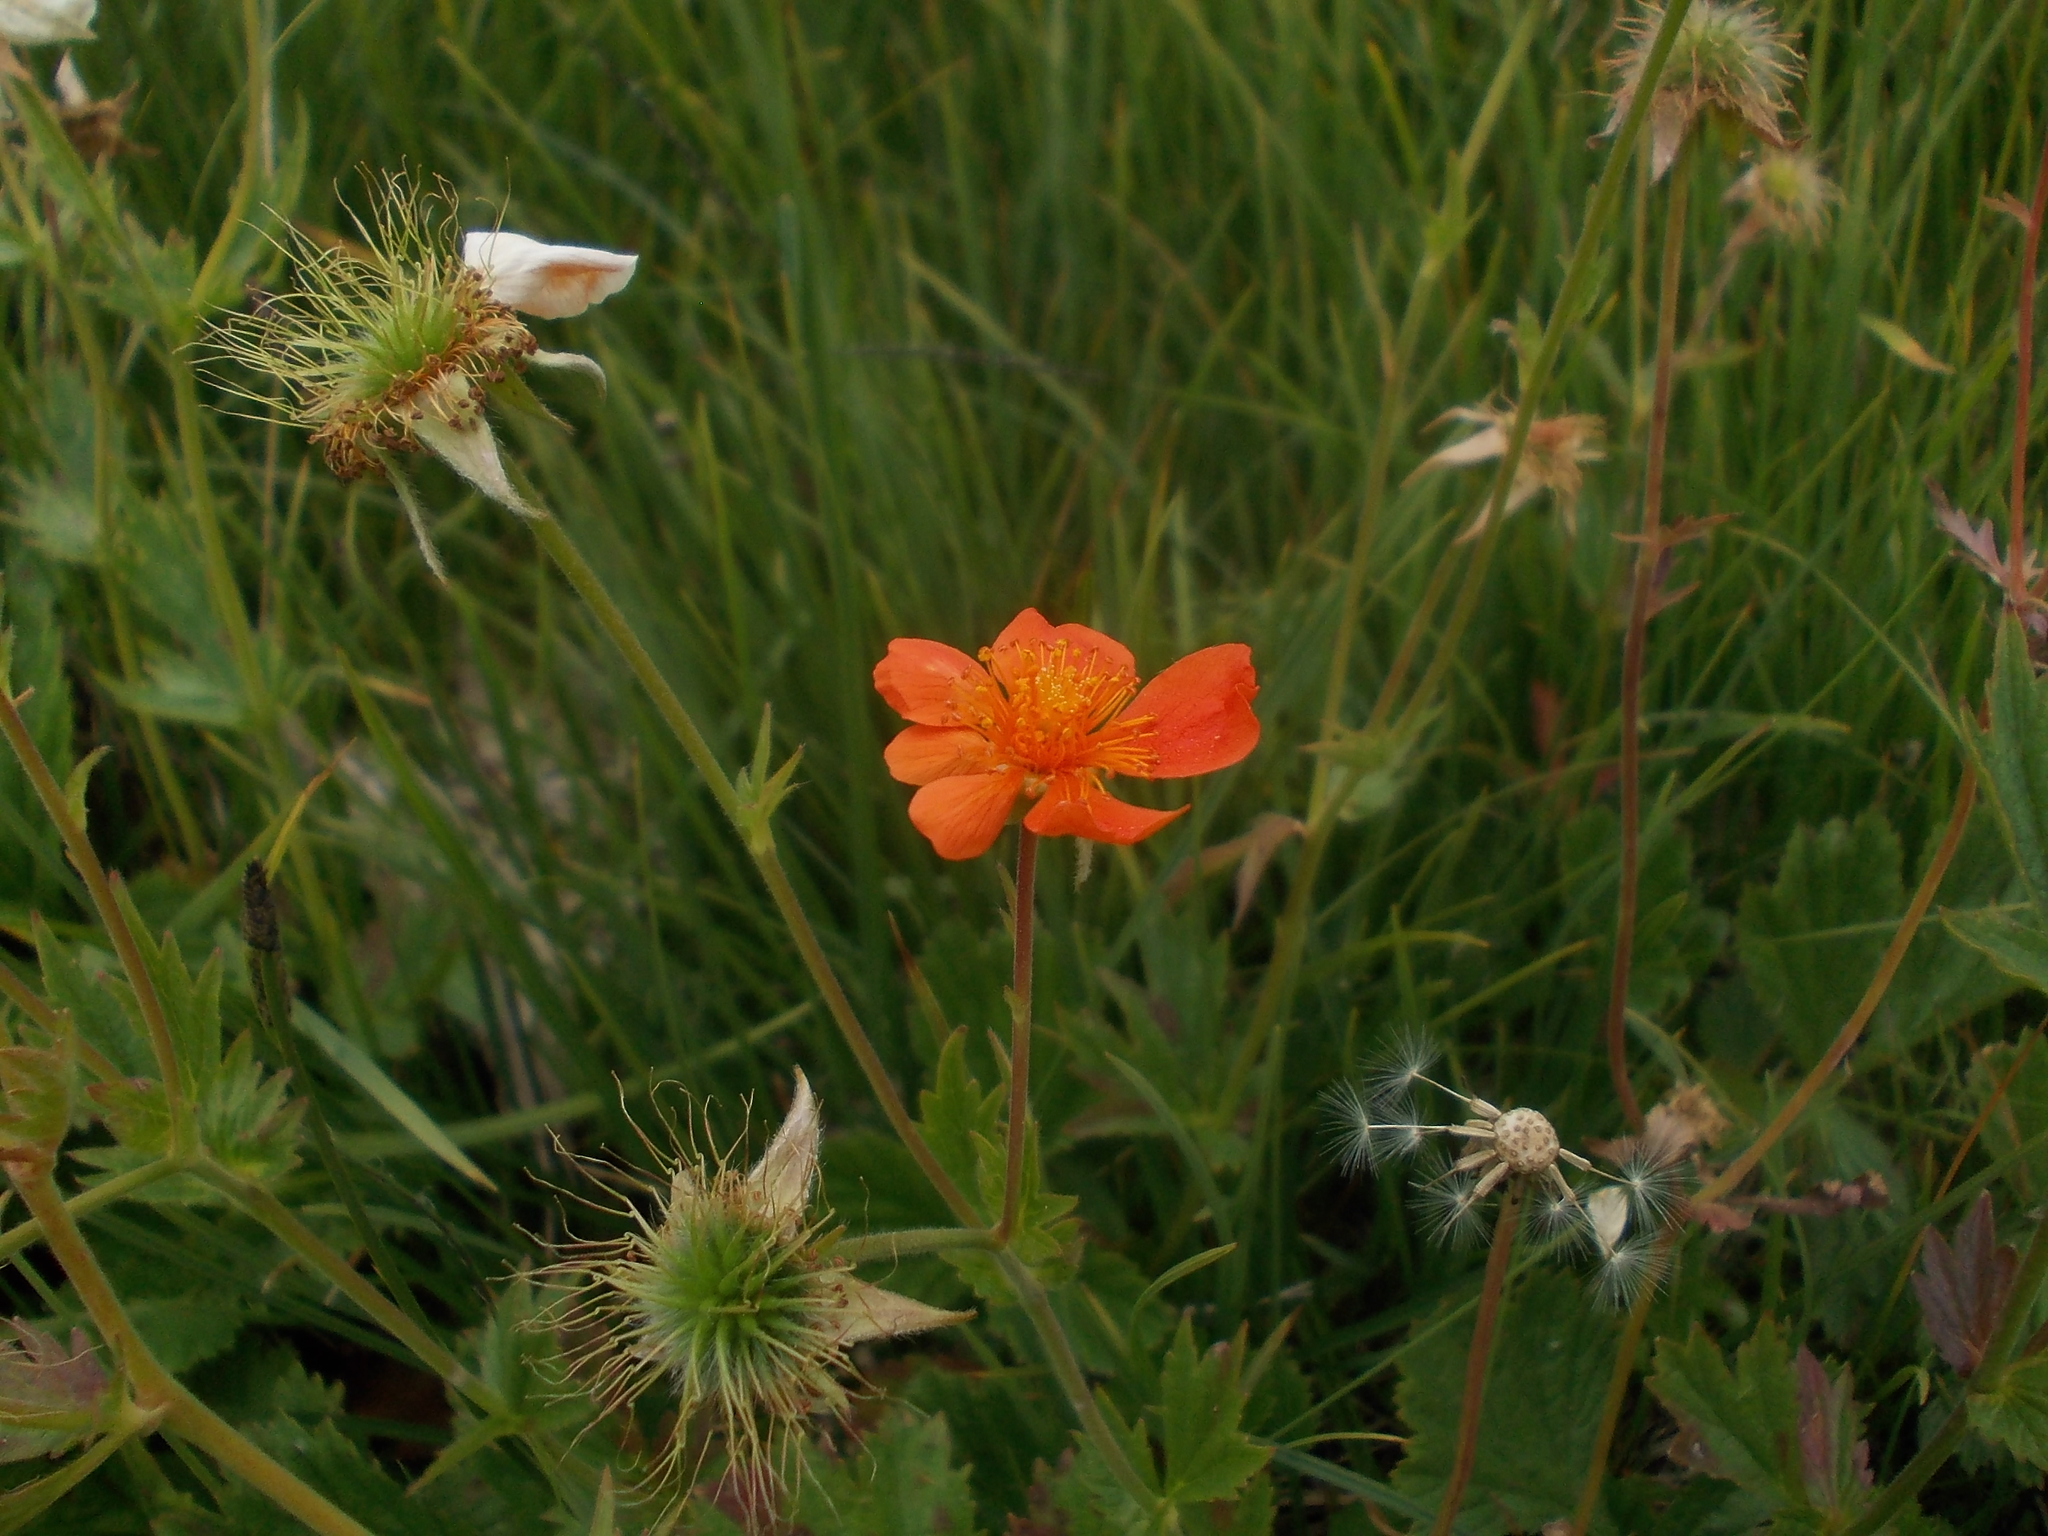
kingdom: Plantae
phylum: Tracheophyta
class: Magnoliopsida
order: Rosales
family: Rosaceae
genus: Geum
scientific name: Geum coccineum
